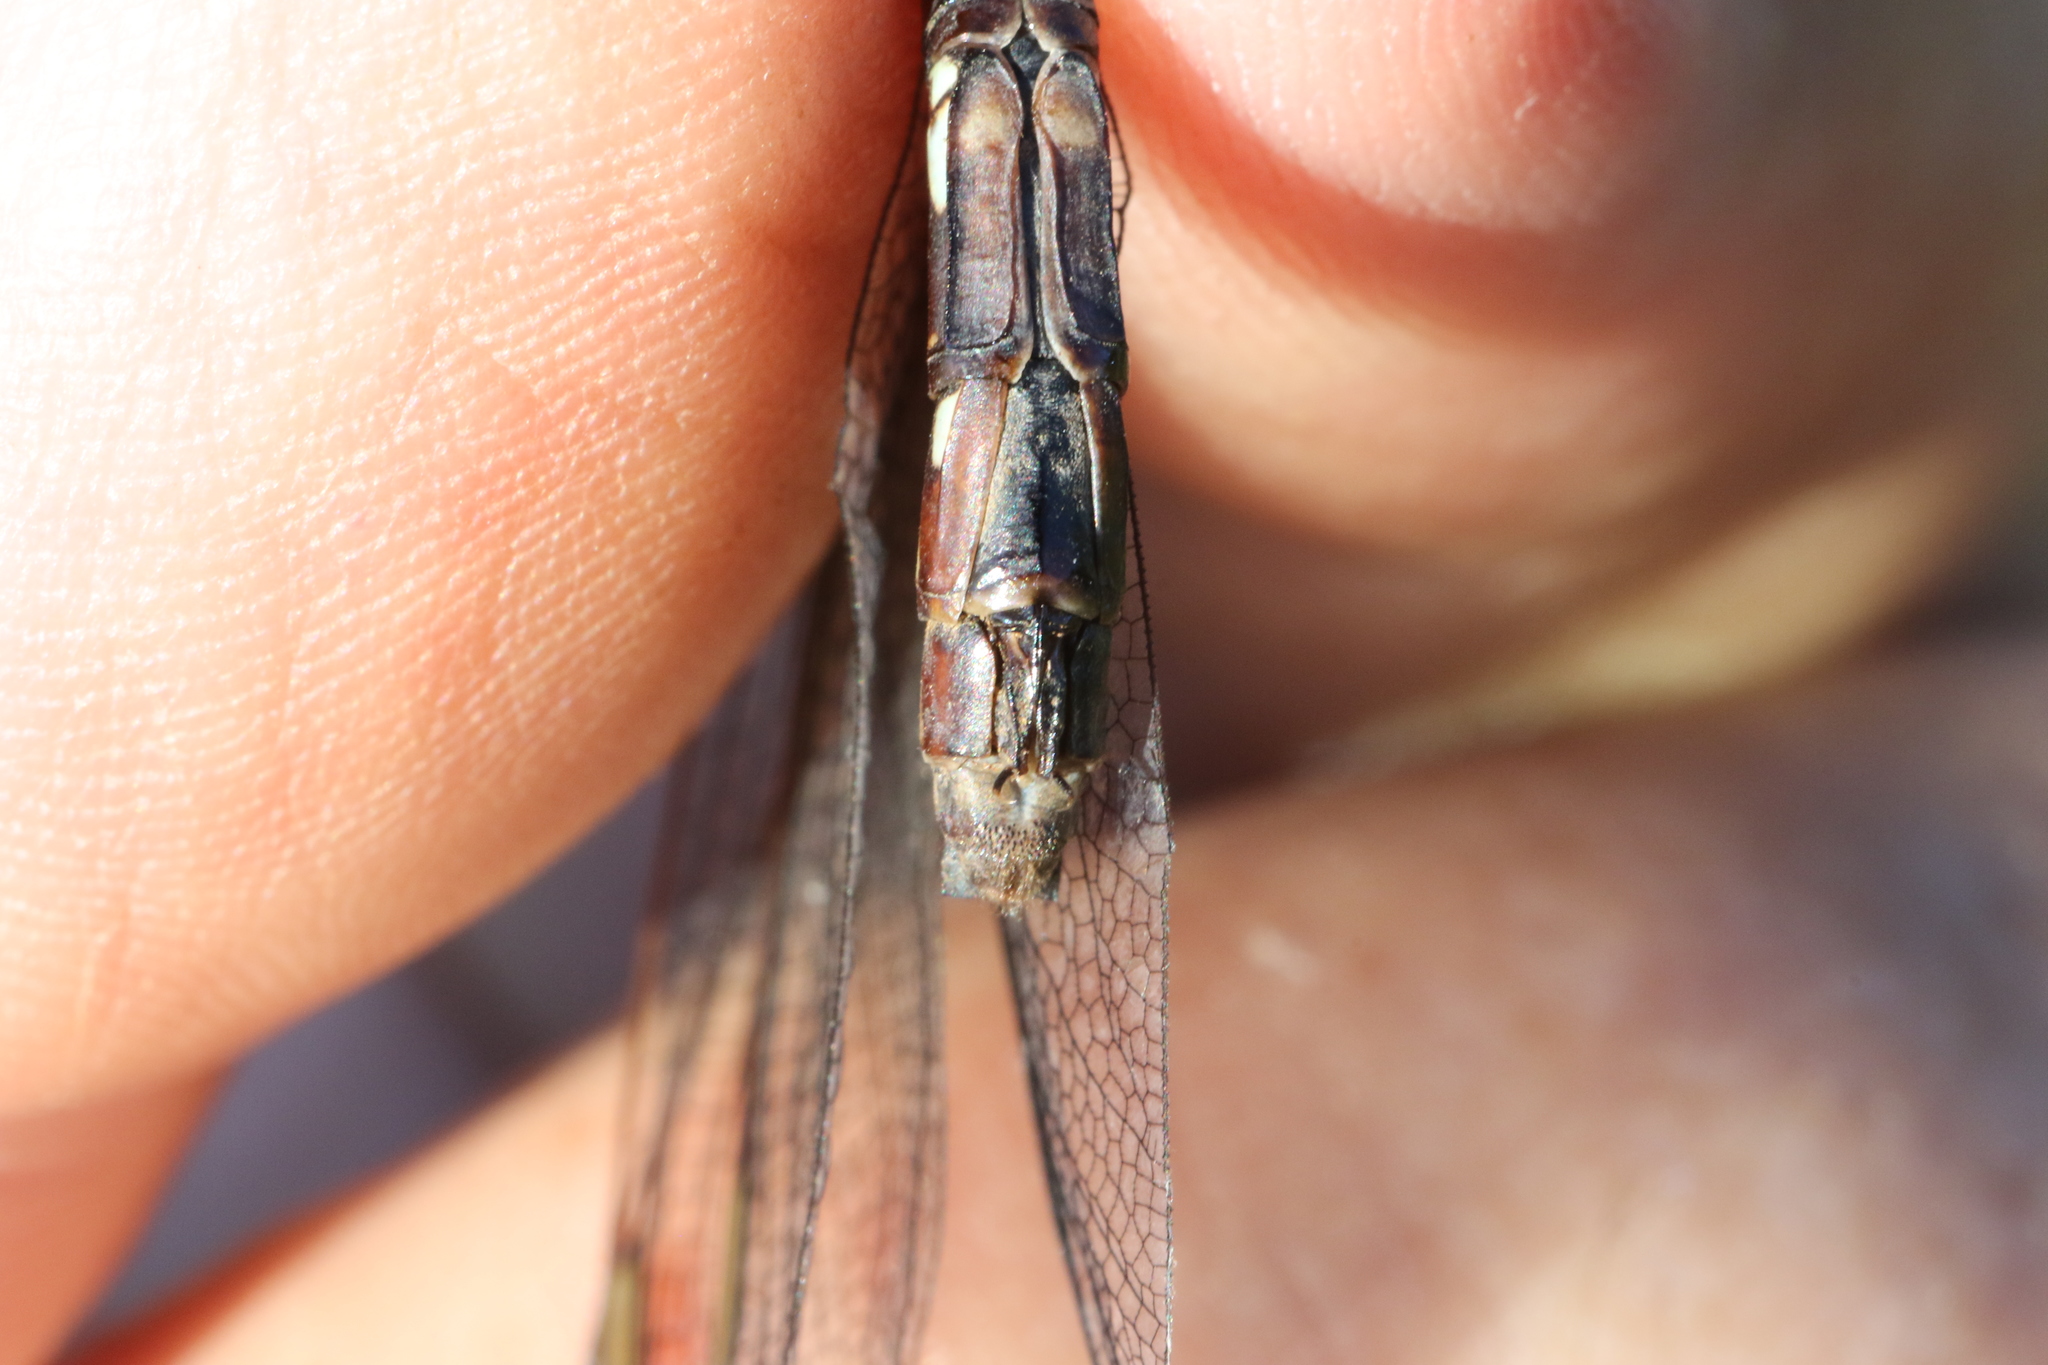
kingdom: Animalia
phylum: Arthropoda
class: Insecta
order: Odonata
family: Aeshnidae
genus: Aeshna
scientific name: Aeshna verticalis
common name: Green-striped darner
